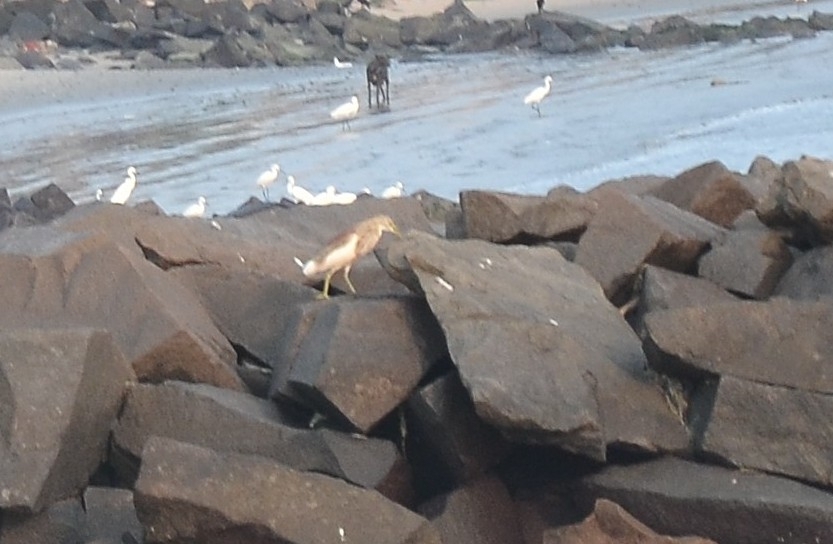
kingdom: Animalia
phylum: Chordata
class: Aves
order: Pelecaniformes
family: Ardeidae
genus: Ardeola
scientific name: Ardeola grayii
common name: Indian pond heron
